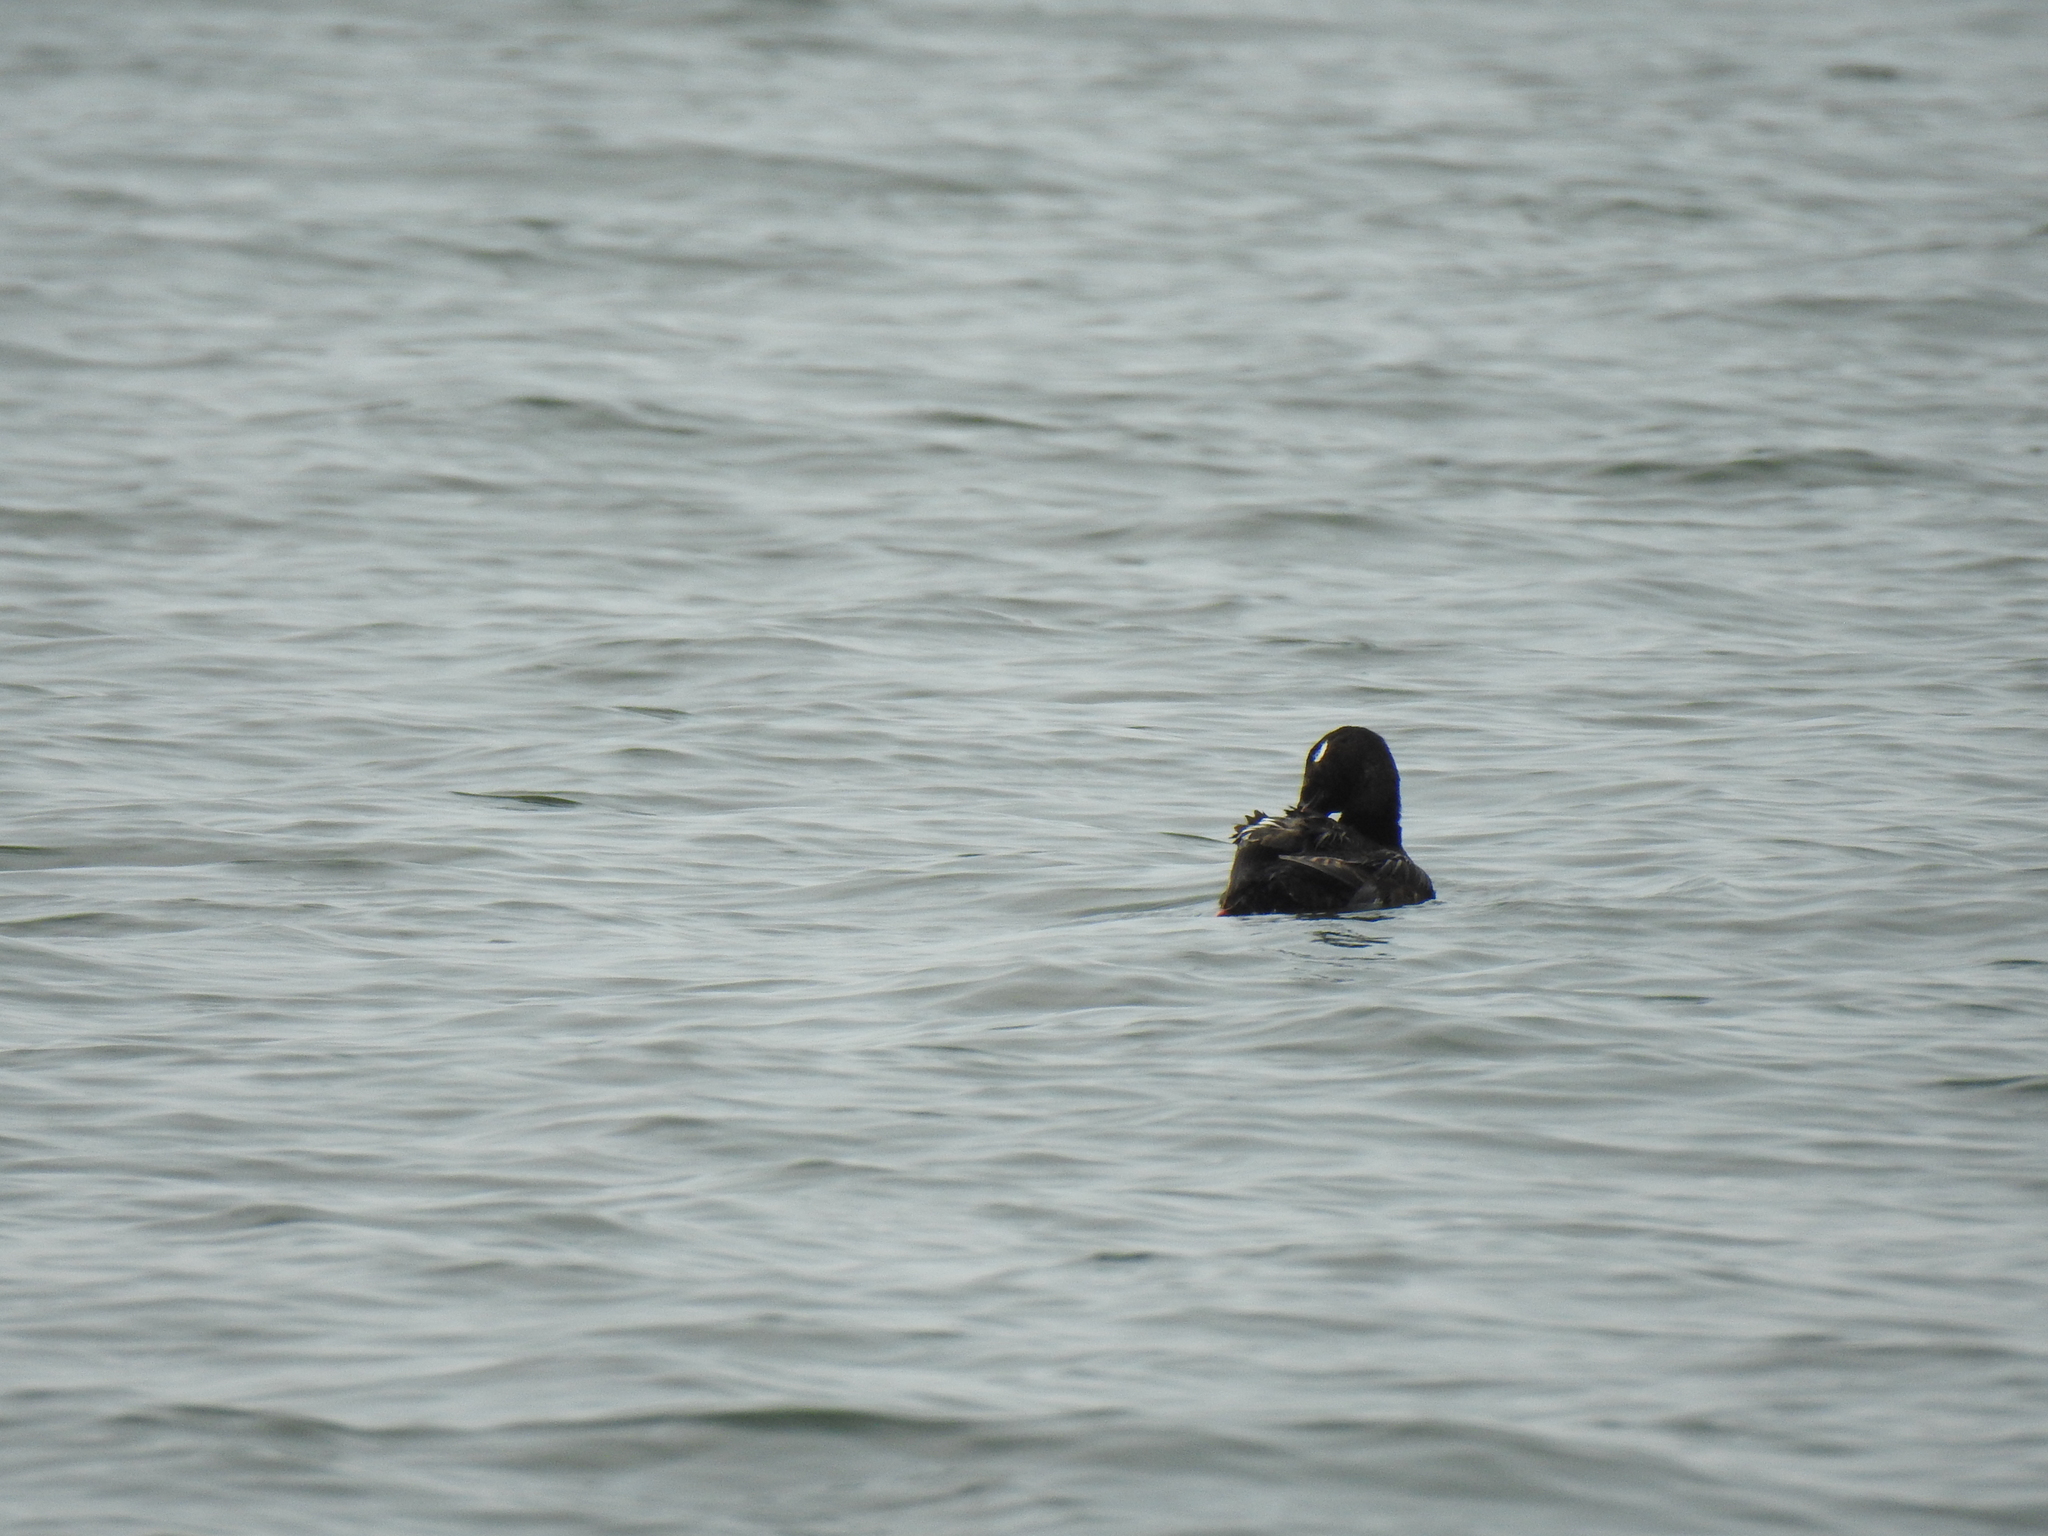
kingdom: Animalia
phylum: Chordata
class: Aves
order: Anseriformes
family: Anatidae
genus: Melanitta
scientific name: Melanitta deglandi
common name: White-winged scoter
